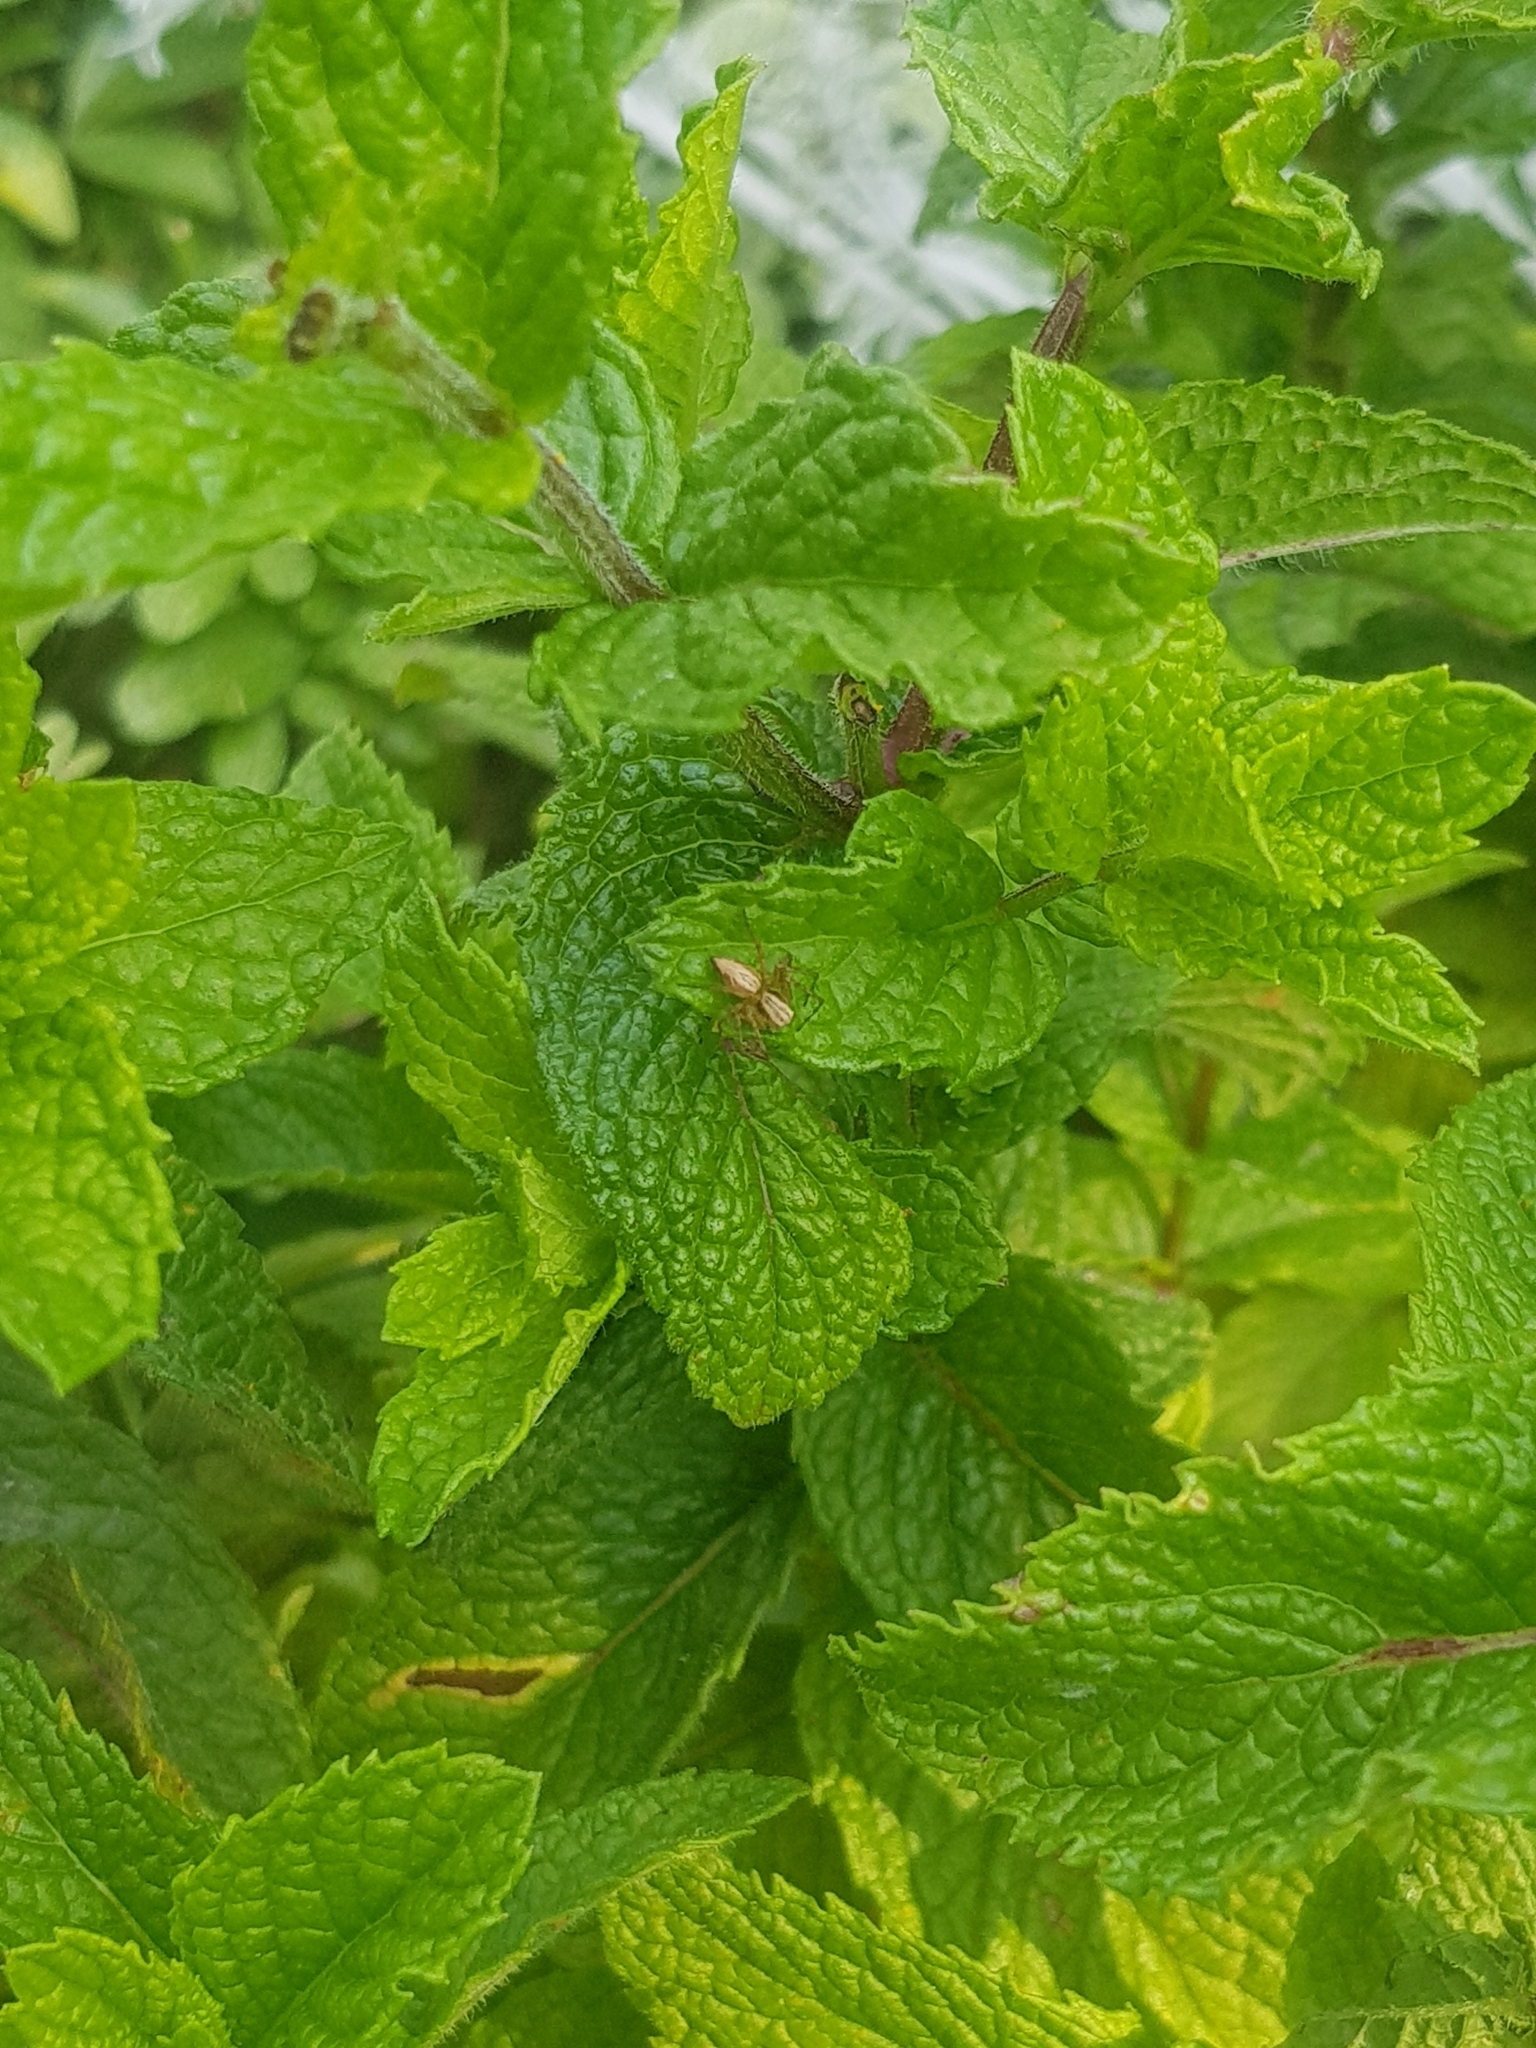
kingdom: Animalia
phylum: Arthropoda
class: Arachnida
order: Araneae
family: Oxyopidae
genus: Oxyopes
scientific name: Oxyopes gracilipes
